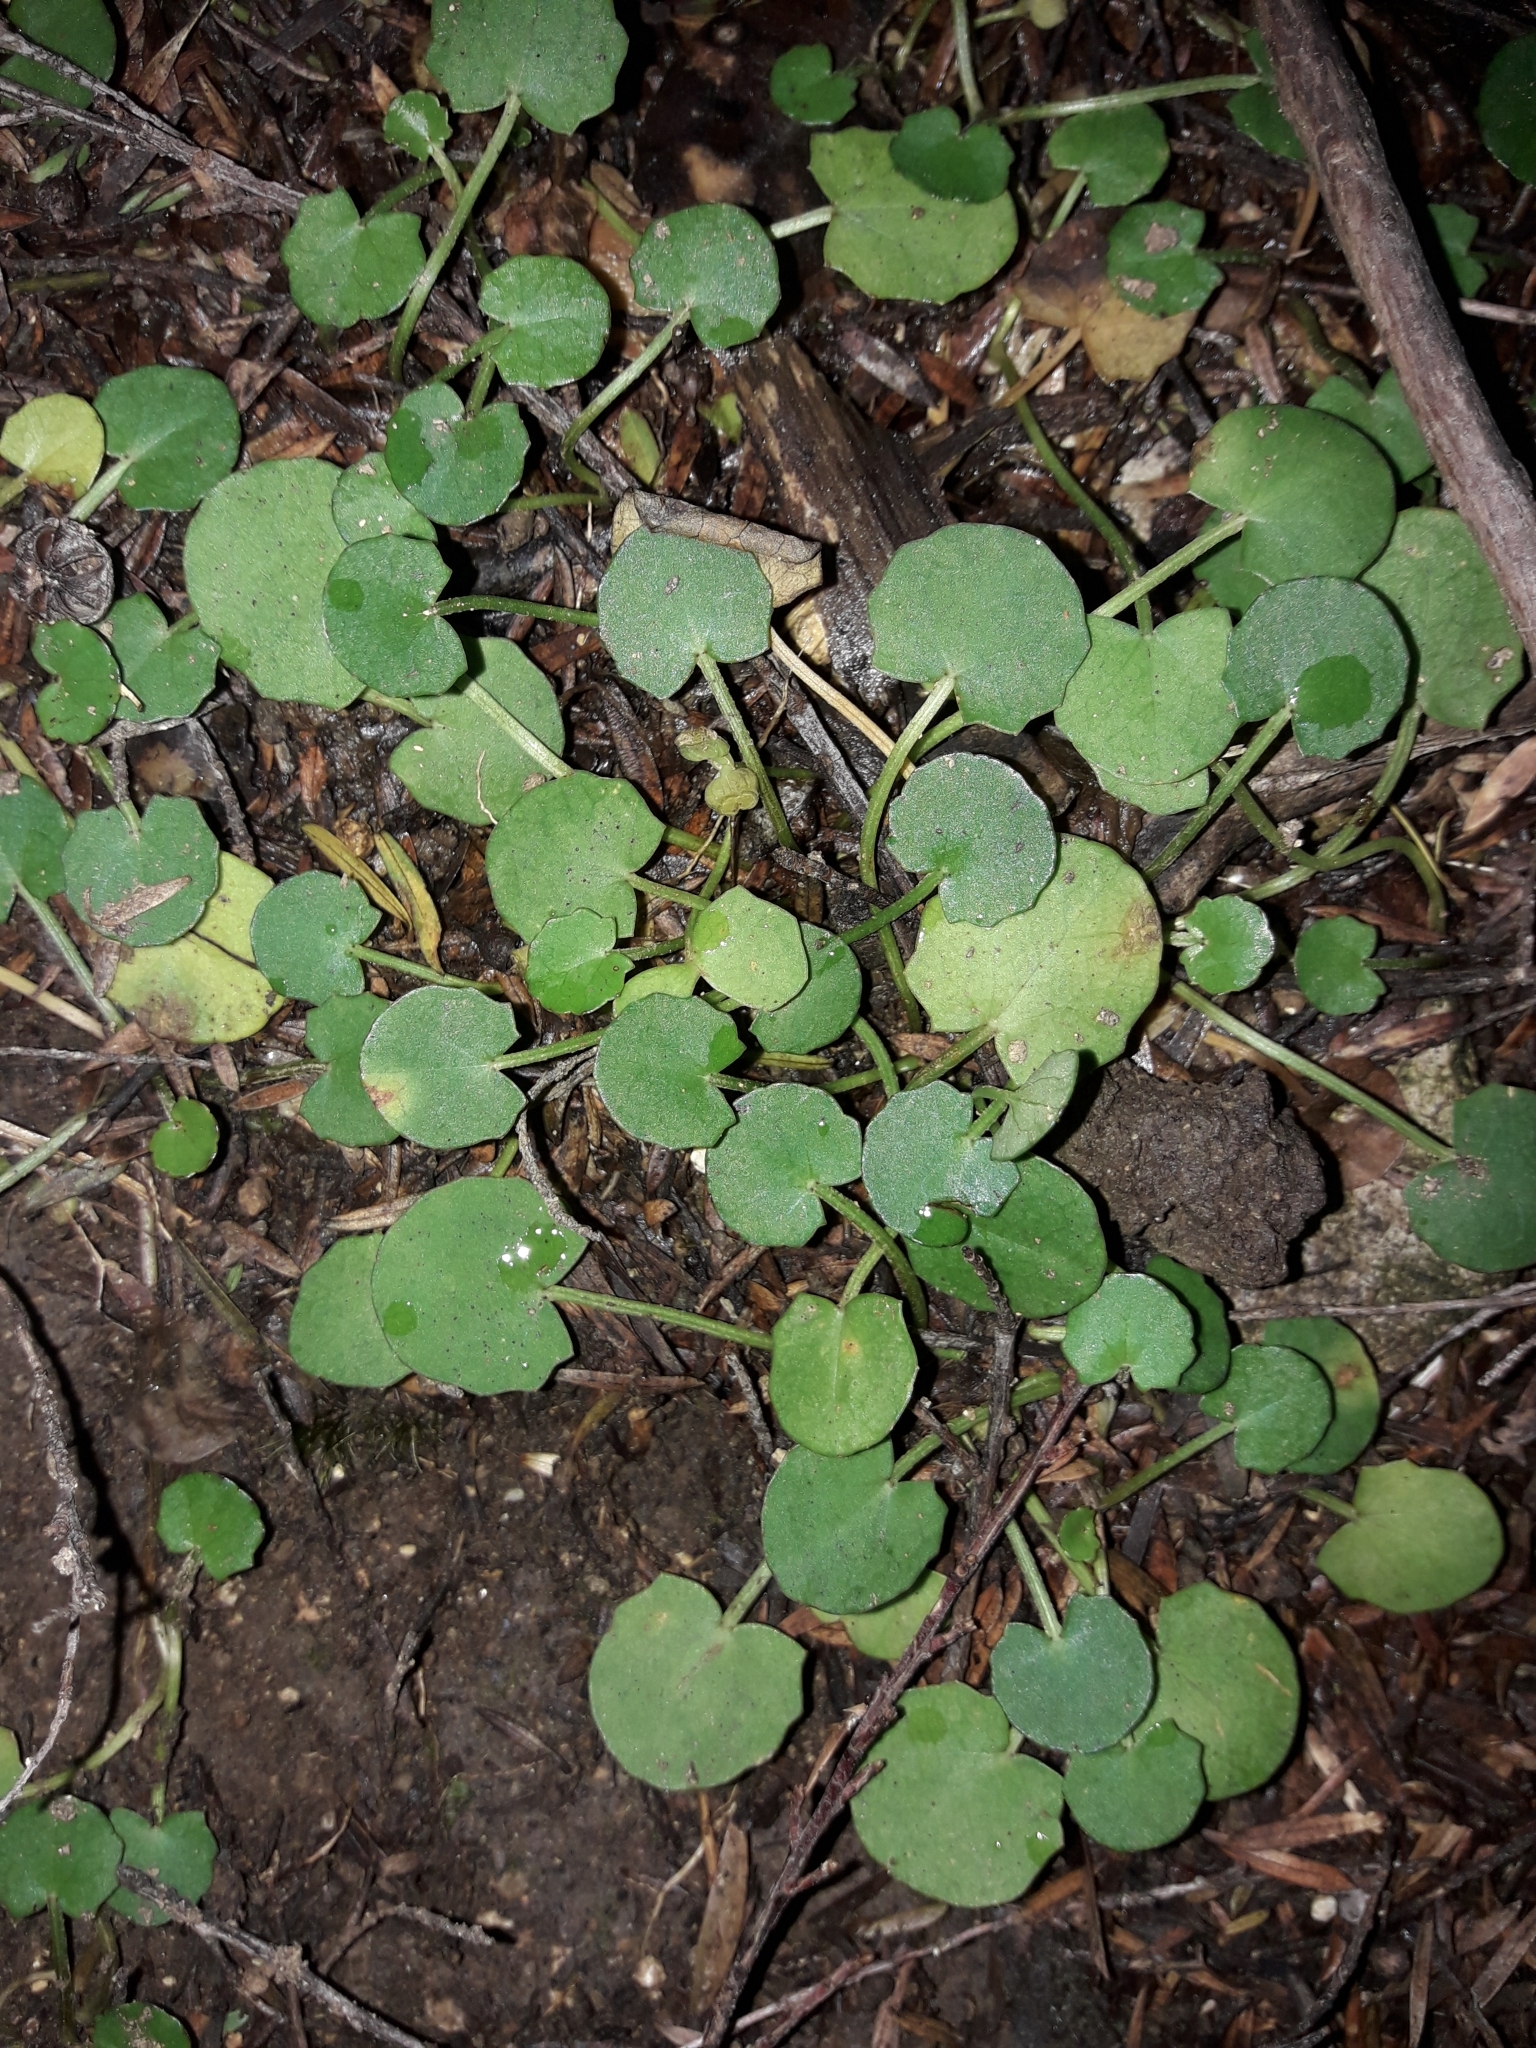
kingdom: Plantae
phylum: Tracheophyta
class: Magnoliopsida
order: Apiales
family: Apiaceae
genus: Centella
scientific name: Centella uniflora
